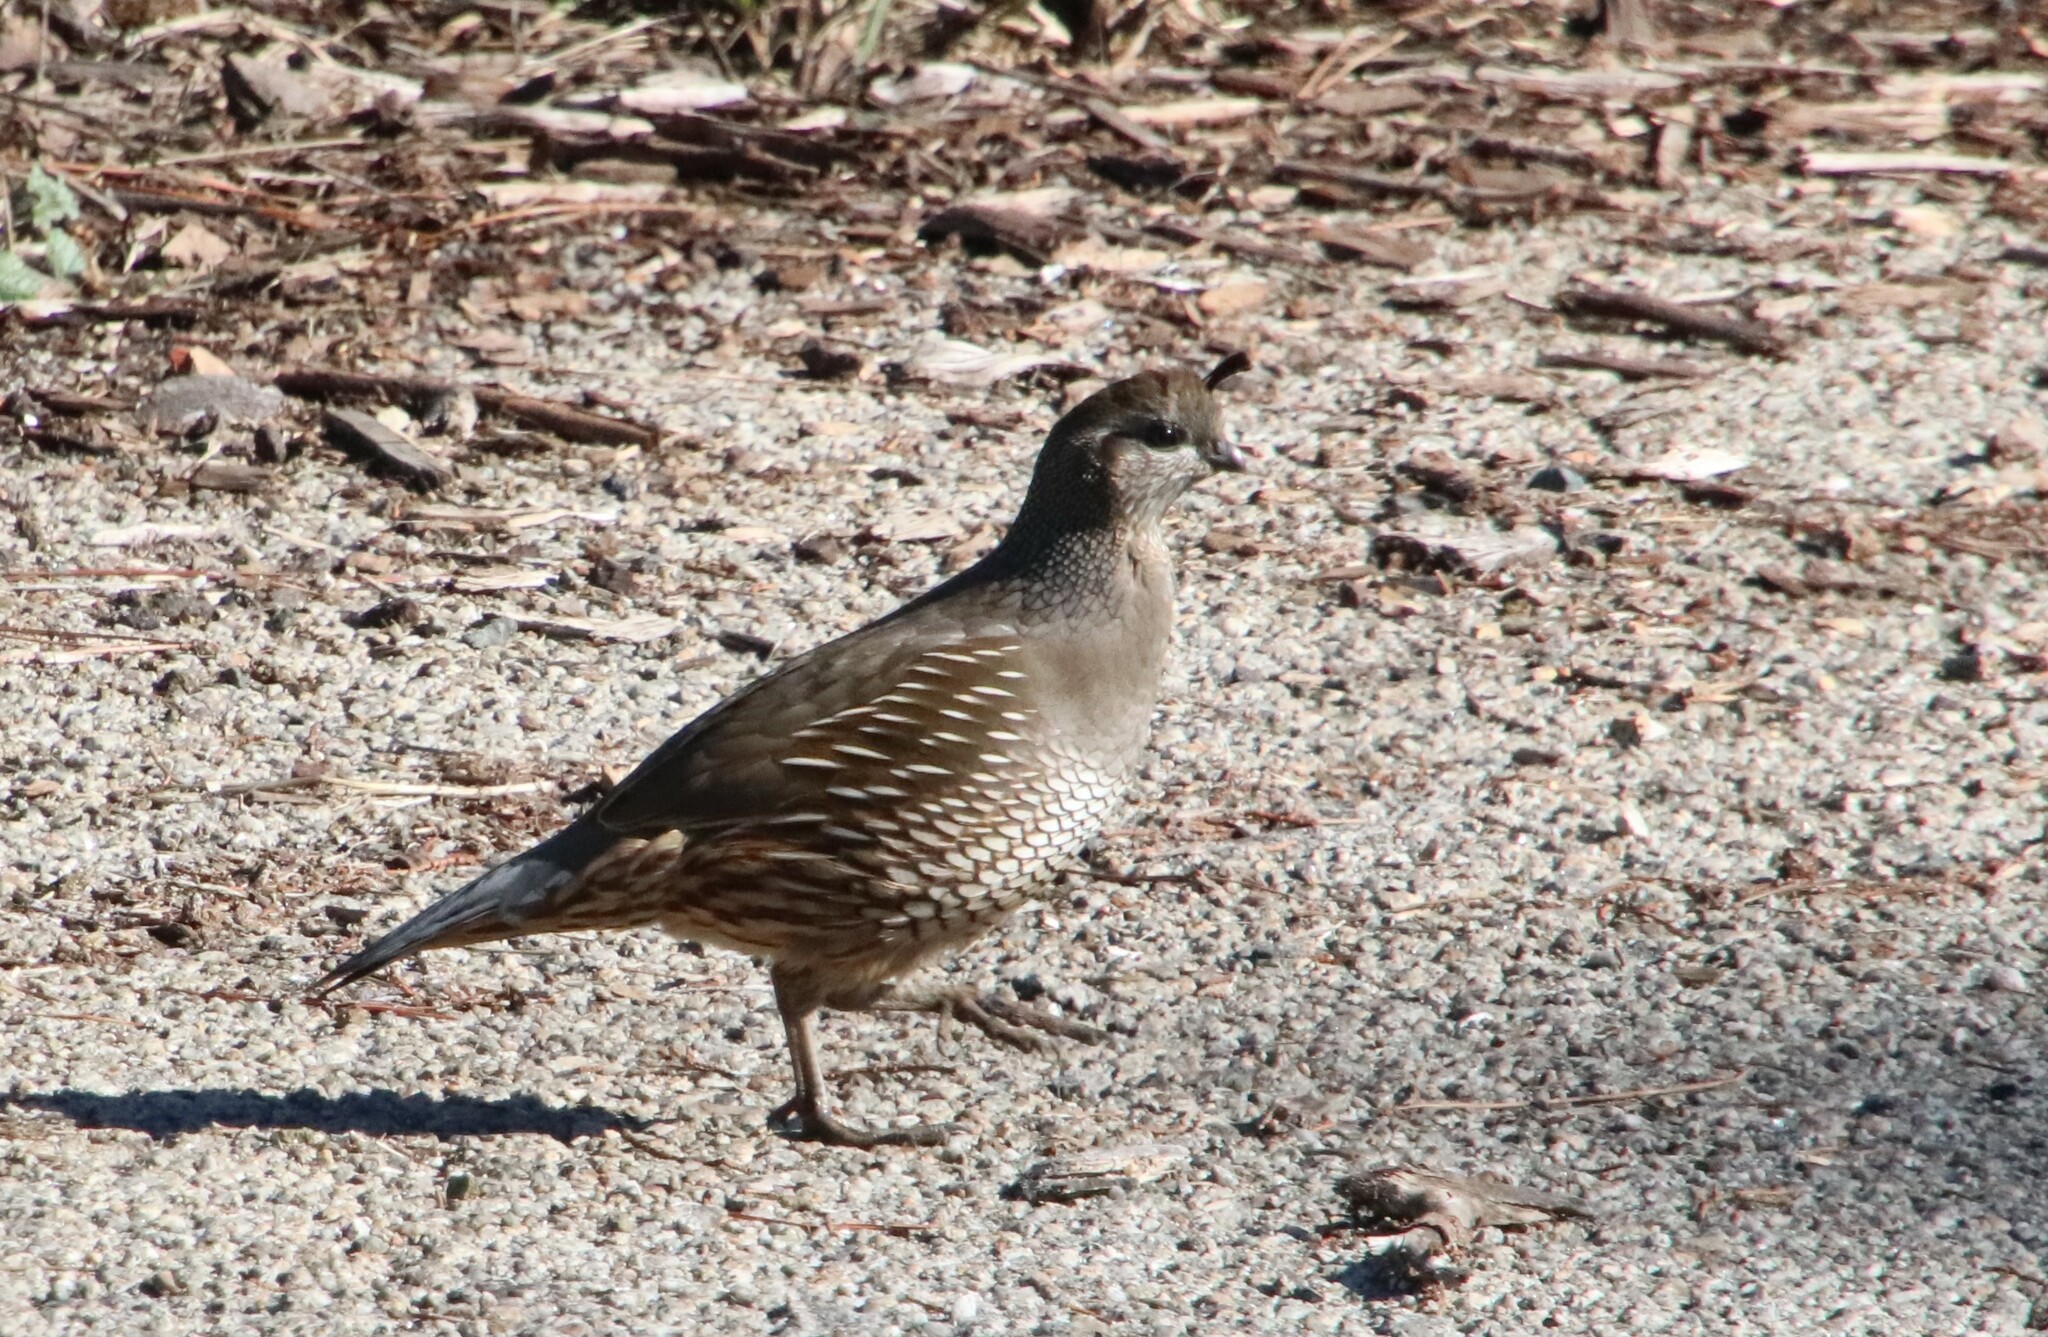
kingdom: Animalia
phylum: Chordata
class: Aves
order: Galliformes
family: Odontophoridae
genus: Callipepla
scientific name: Callipepla californica
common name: California quail
